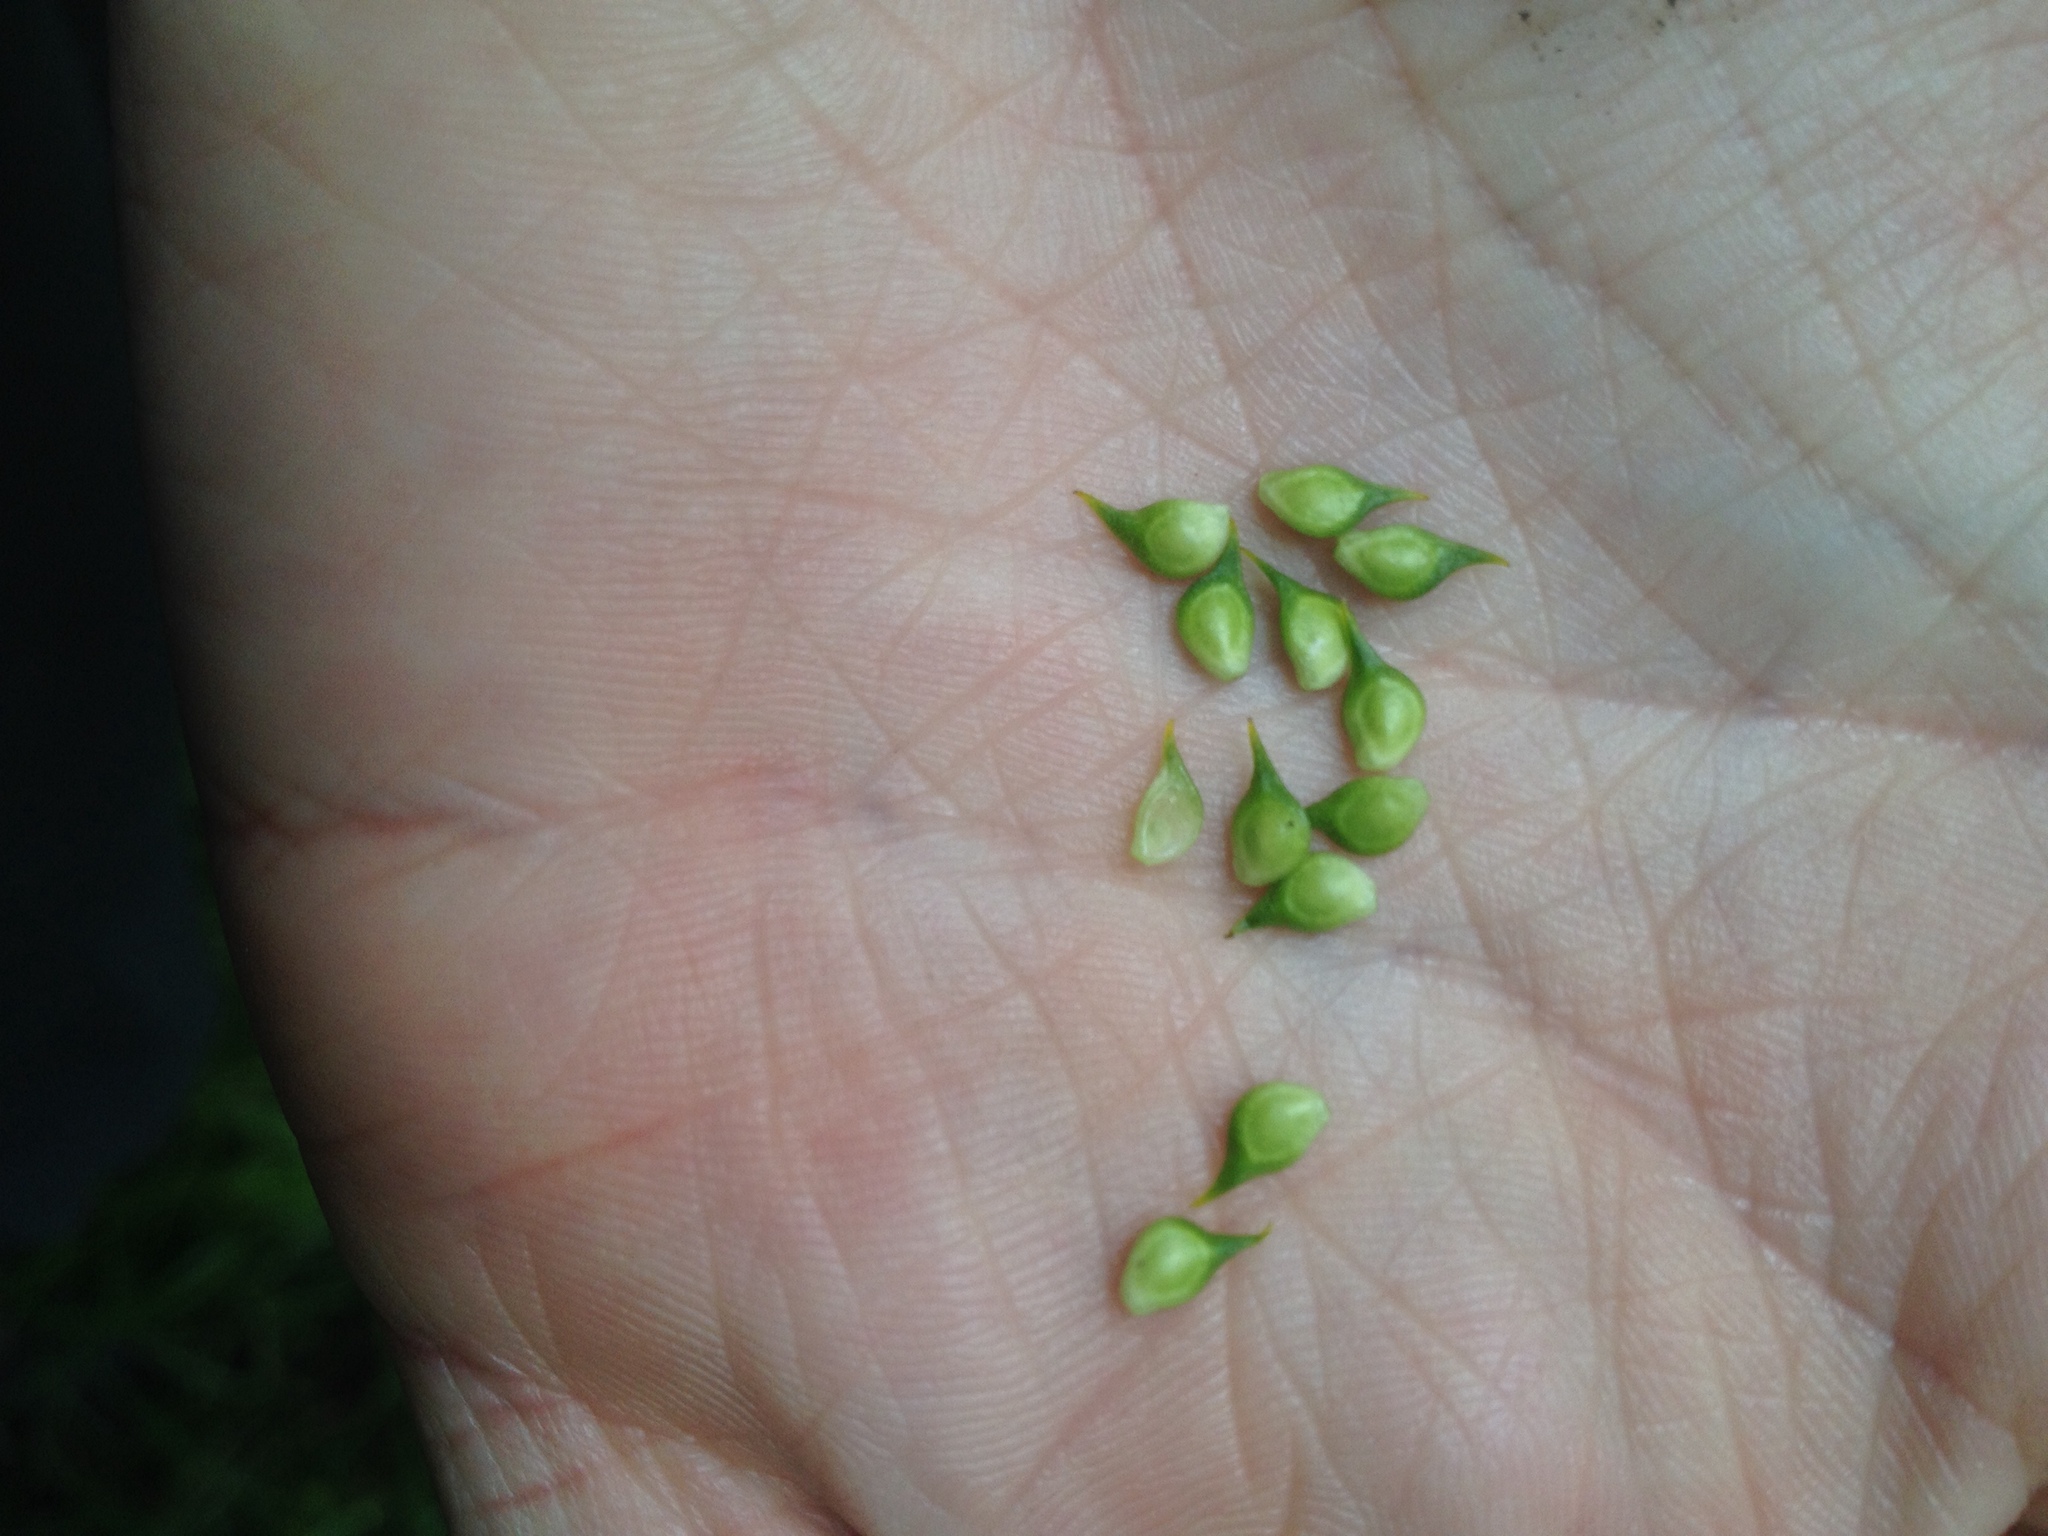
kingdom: Plantae
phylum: Tracheophyta
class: Magnoliopsida
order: Ranunculales
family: Ranunculaceae
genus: Ranunculus
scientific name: Ranunculus hispidus
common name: Bristly buttercup
